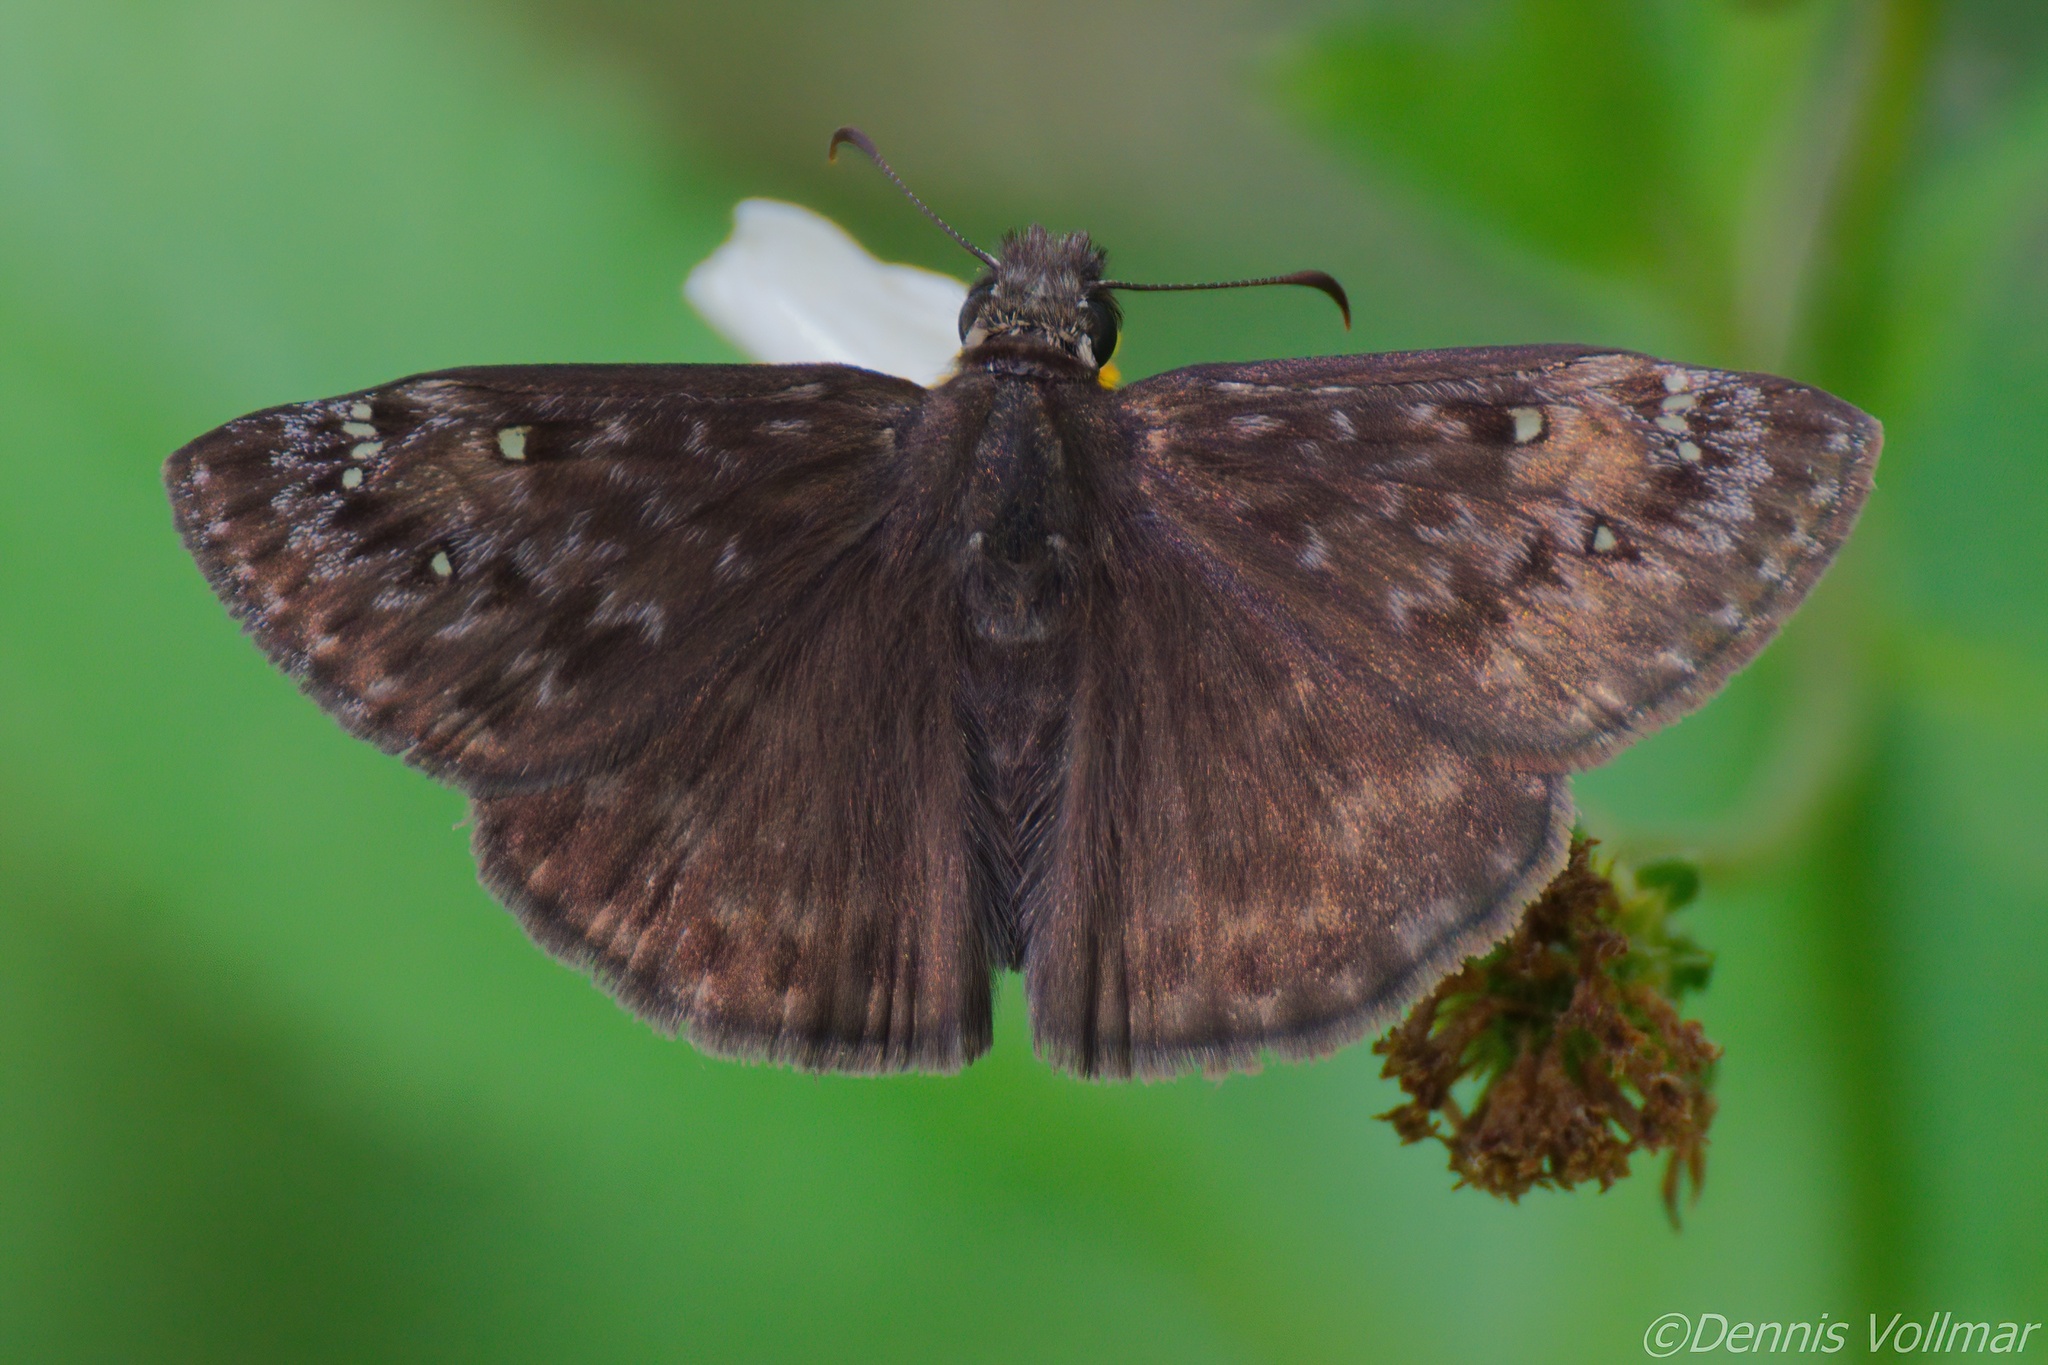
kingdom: Animalia
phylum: Arthropoda
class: Insecta
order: Lepidoptera
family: Hesperiidae
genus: Erynnis
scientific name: Erynnis horatius
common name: Horace's duskywing
